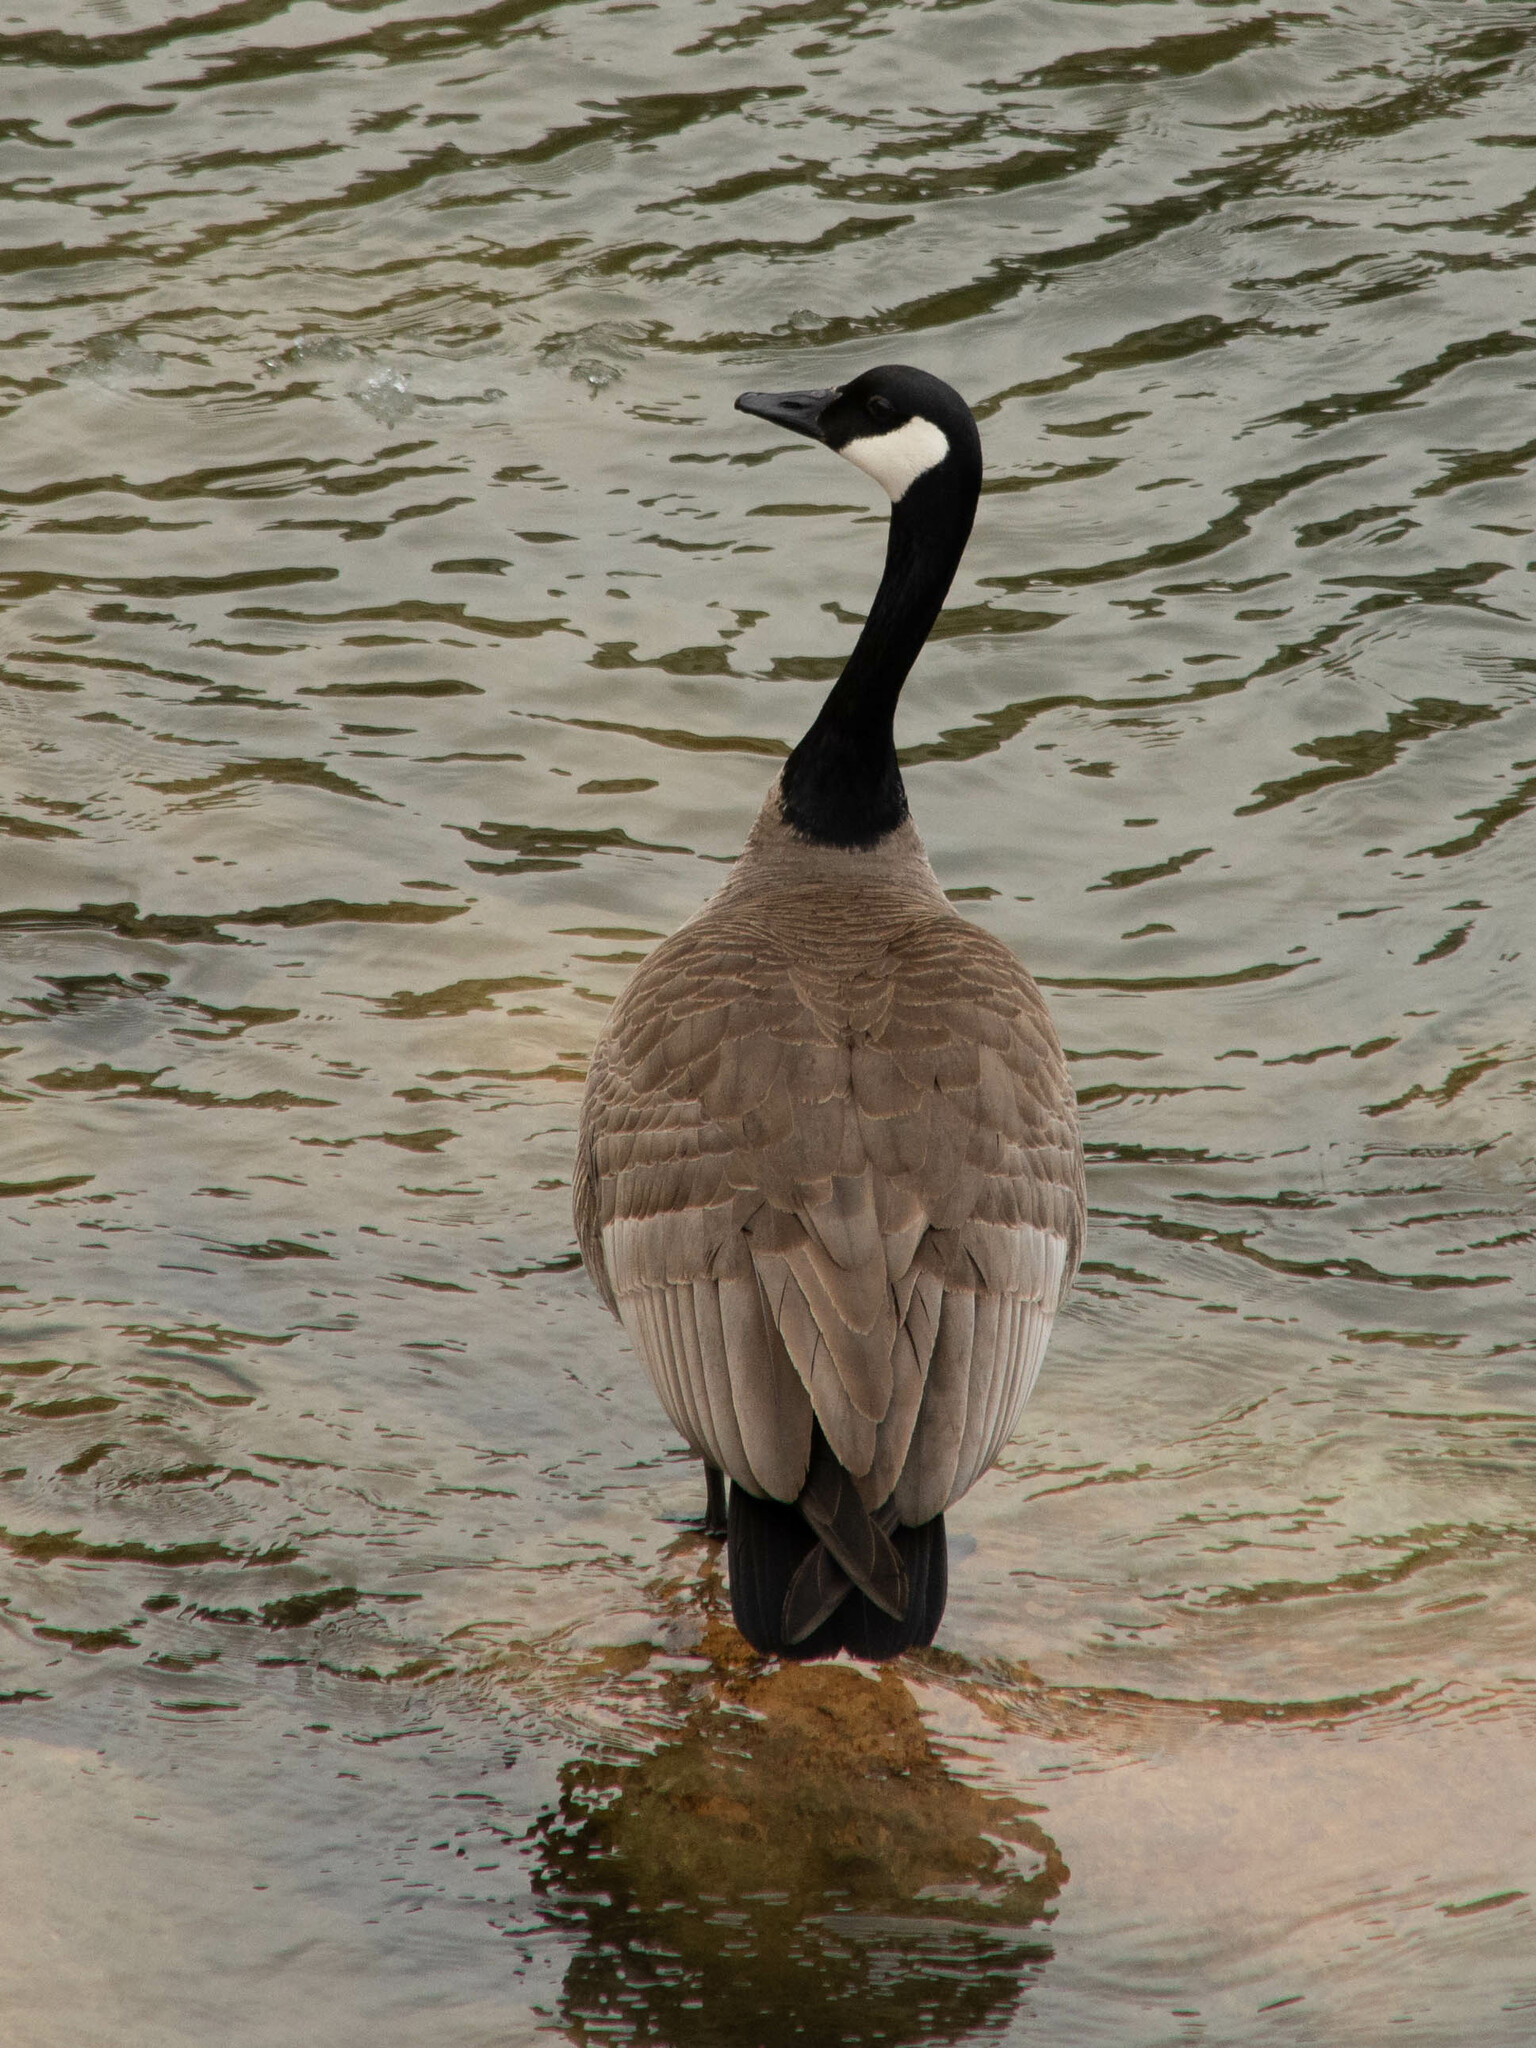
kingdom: Animalia
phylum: Chordata
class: Aves
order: Anseriformes
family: Anatidae
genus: Branta
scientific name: Branta canadensis
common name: Canada goose
